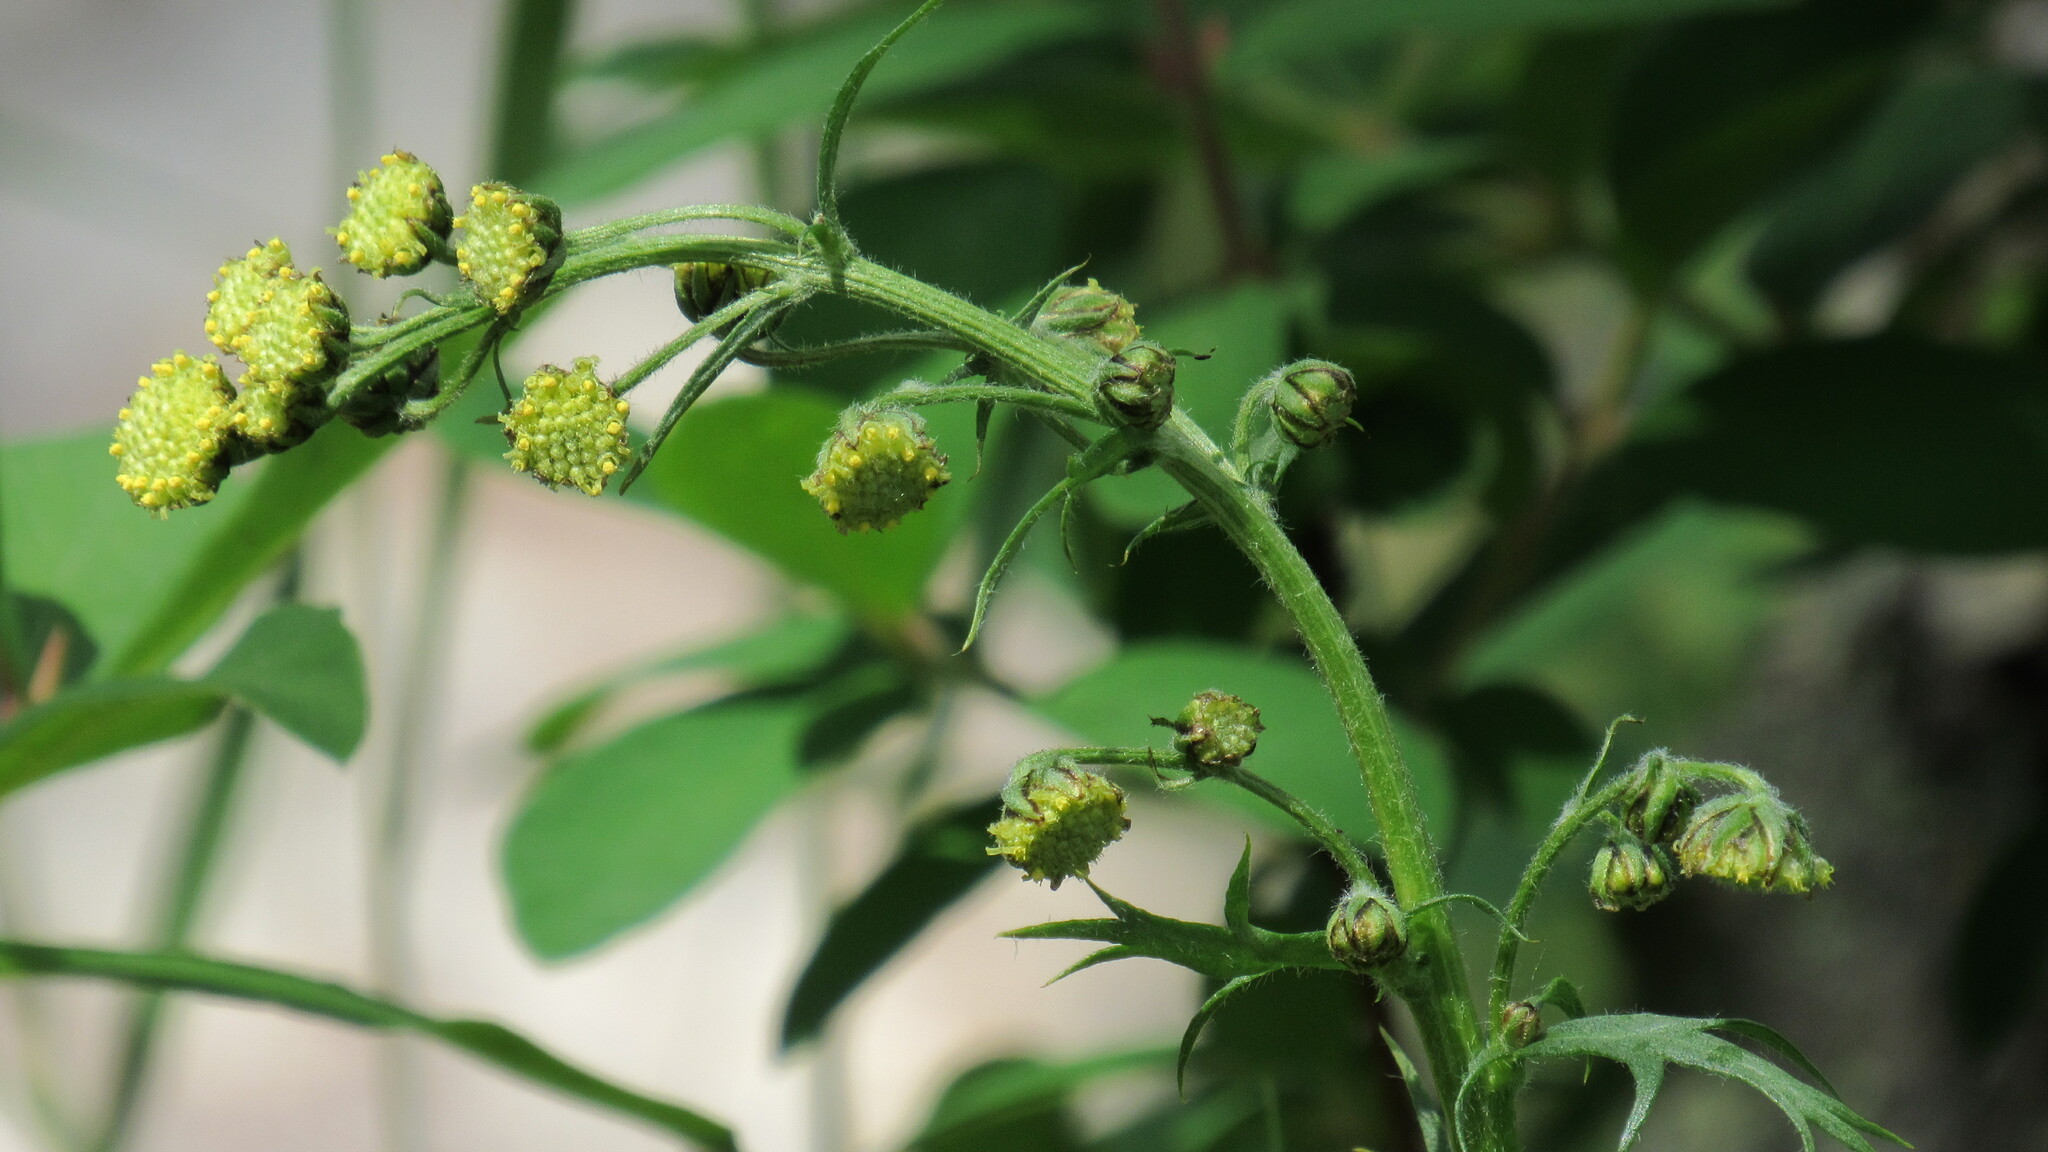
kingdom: Plantae
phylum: Tracheophyta
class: Magnoliopsida
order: Asterales
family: Asteraceae
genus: Artemisia
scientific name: Artemisia arctica
